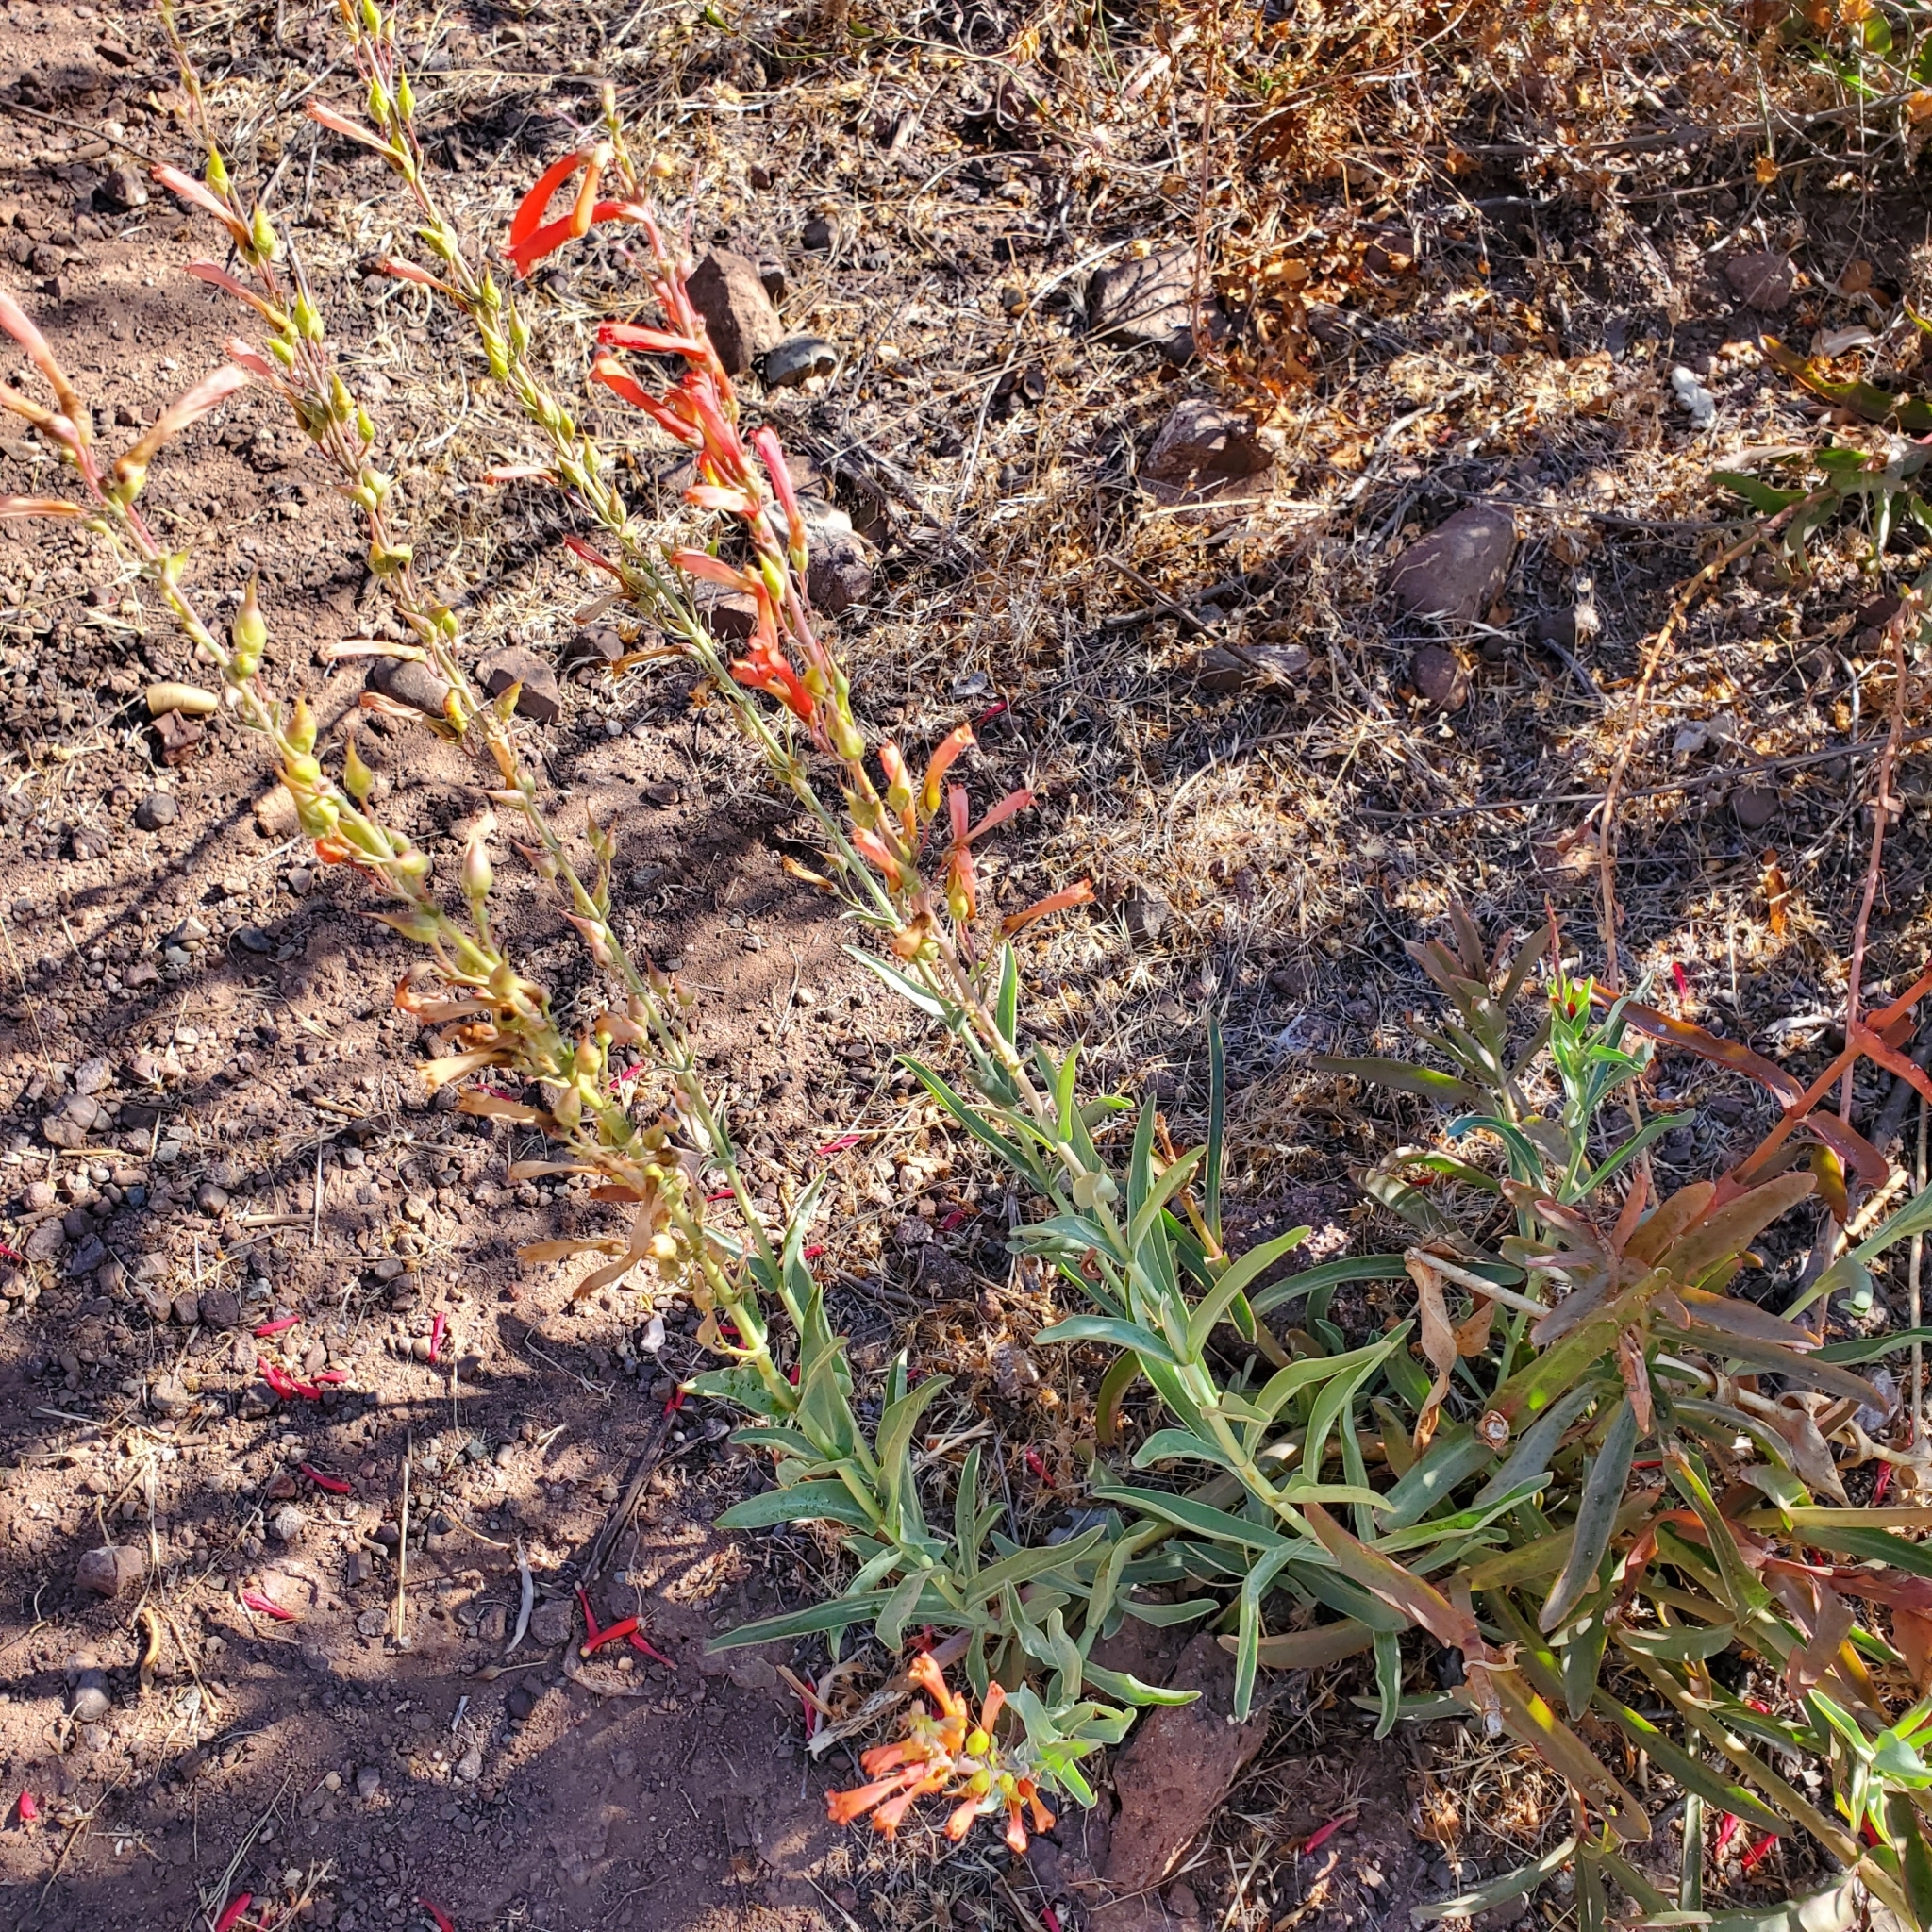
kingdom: Plantae
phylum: Tracheophyta
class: Magnoliopsida
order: Lamiales
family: Plantaginaceae
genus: Penstemon
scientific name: Penstemon centranthifolius
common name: Scarlet bugler
